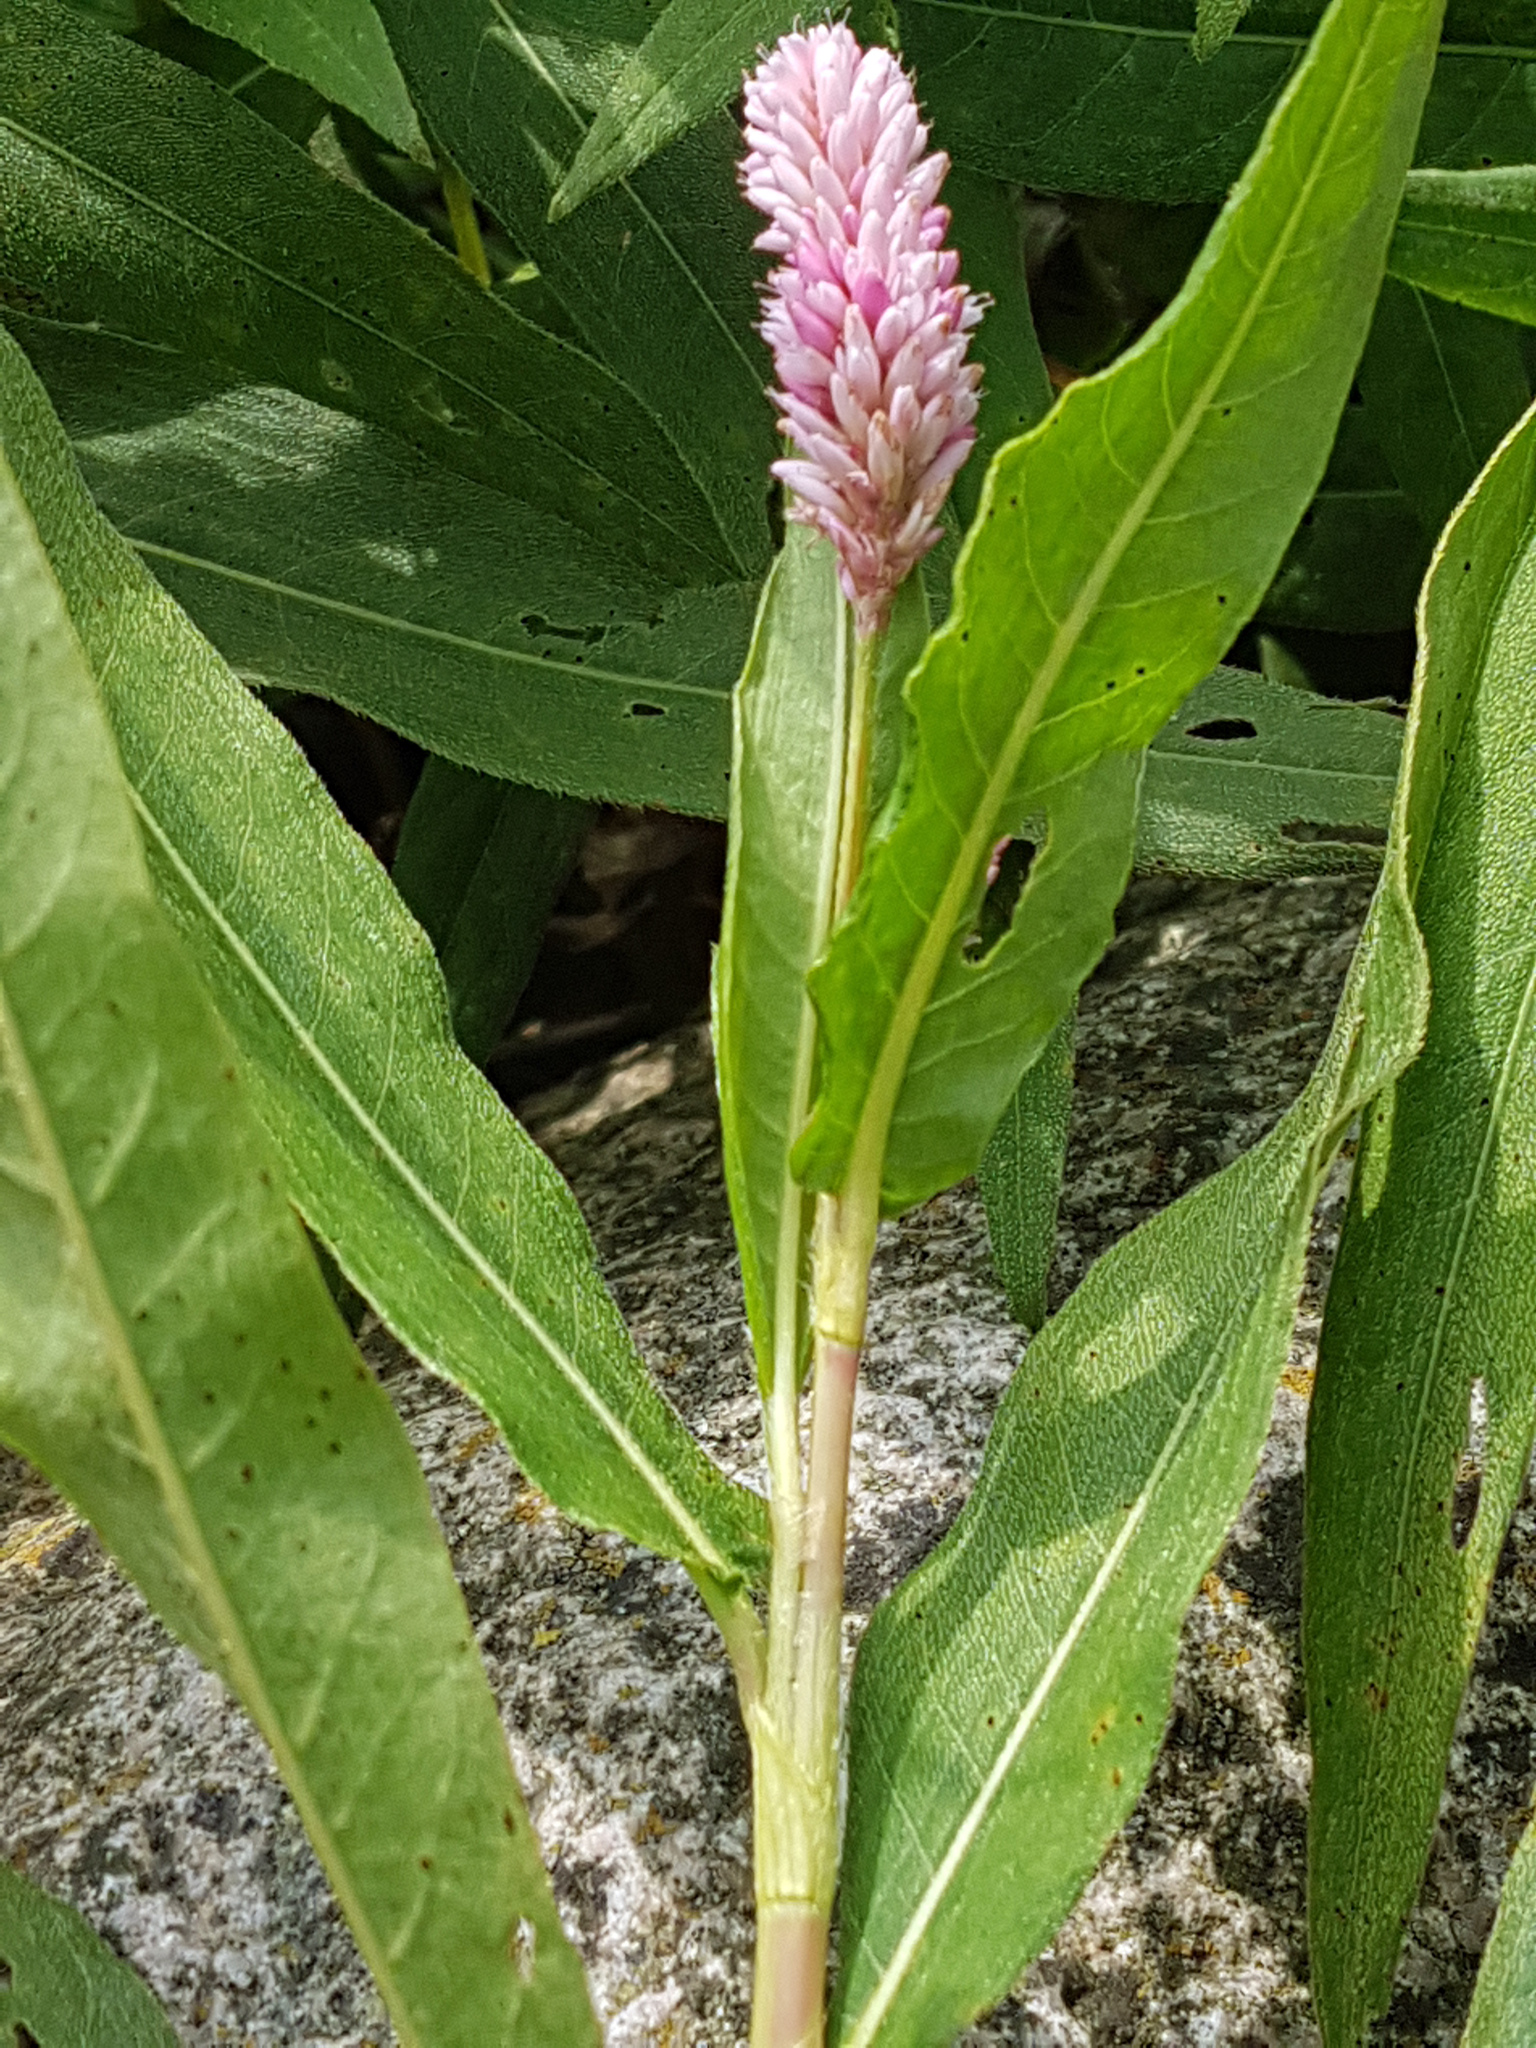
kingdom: Plantae
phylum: Tracheophyta
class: Magnoliopsida
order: Caryophyllales
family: Polygonaceae
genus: Persicaria
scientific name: Persicaria amphibia
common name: Amphibious bistort
